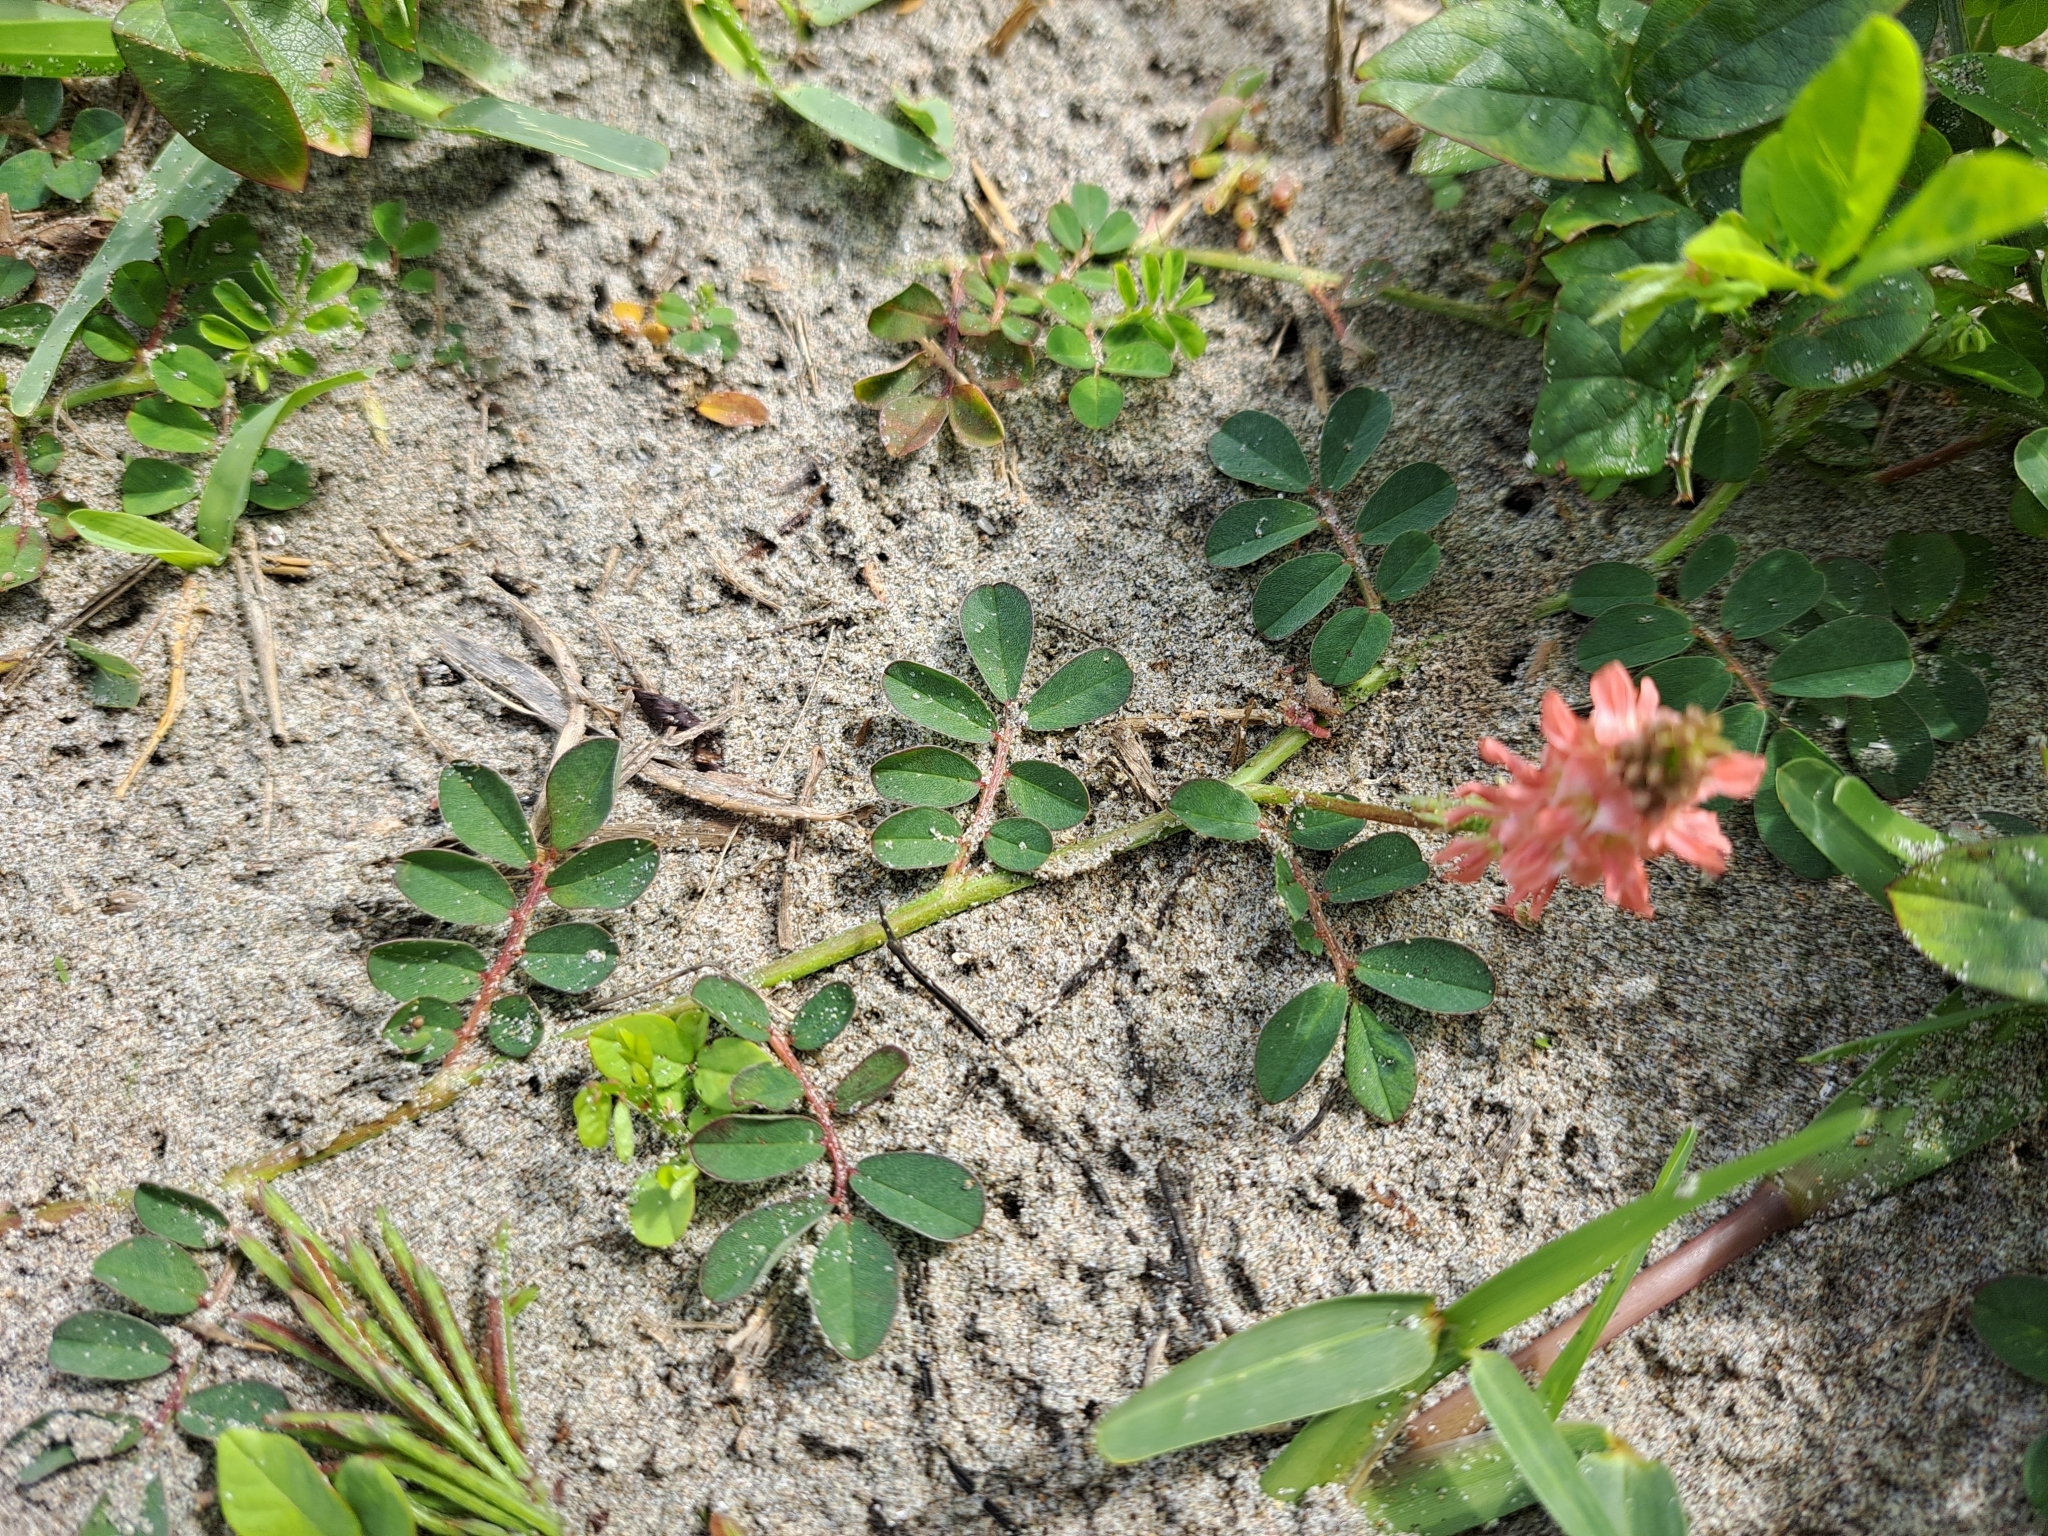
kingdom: Plantae
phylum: Tracheophyta
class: Magnoliopsida
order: Fabales
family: Fabaceae
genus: Indigofera
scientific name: Indigofera spicata
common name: Creeping indigo
